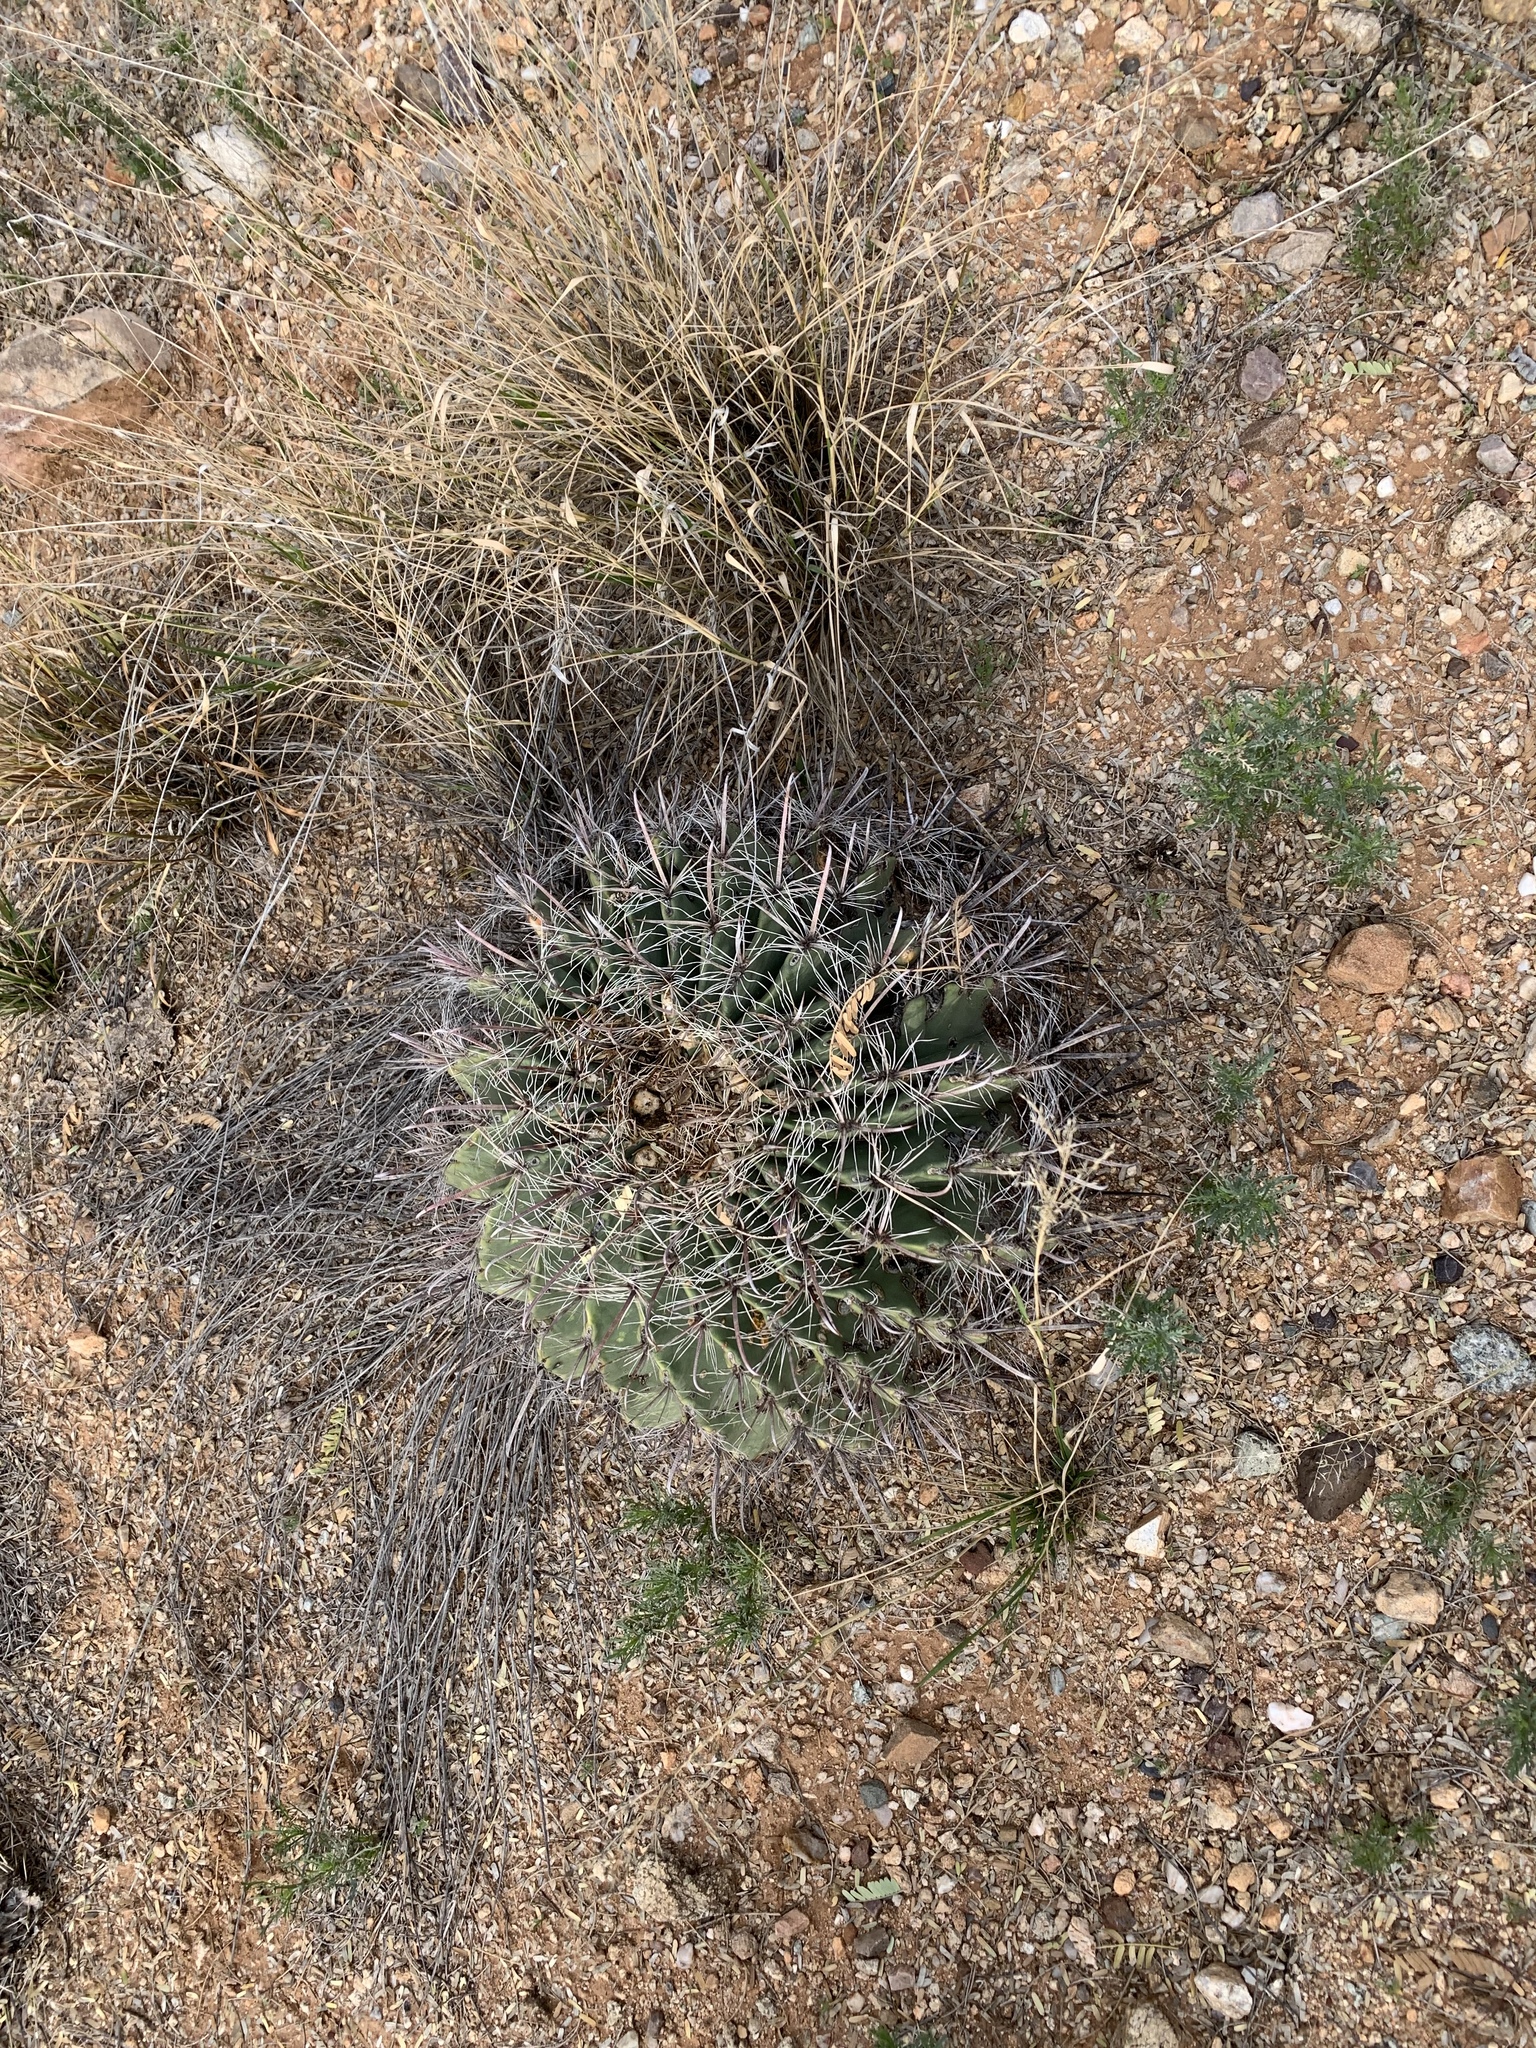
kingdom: Plantae
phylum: Tracheophyta
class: Magnoliopsida
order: Caryophyllales
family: Cactaceae
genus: Ferocactus
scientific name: Ferocactus wislizeni
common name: Candy barrel cactus
